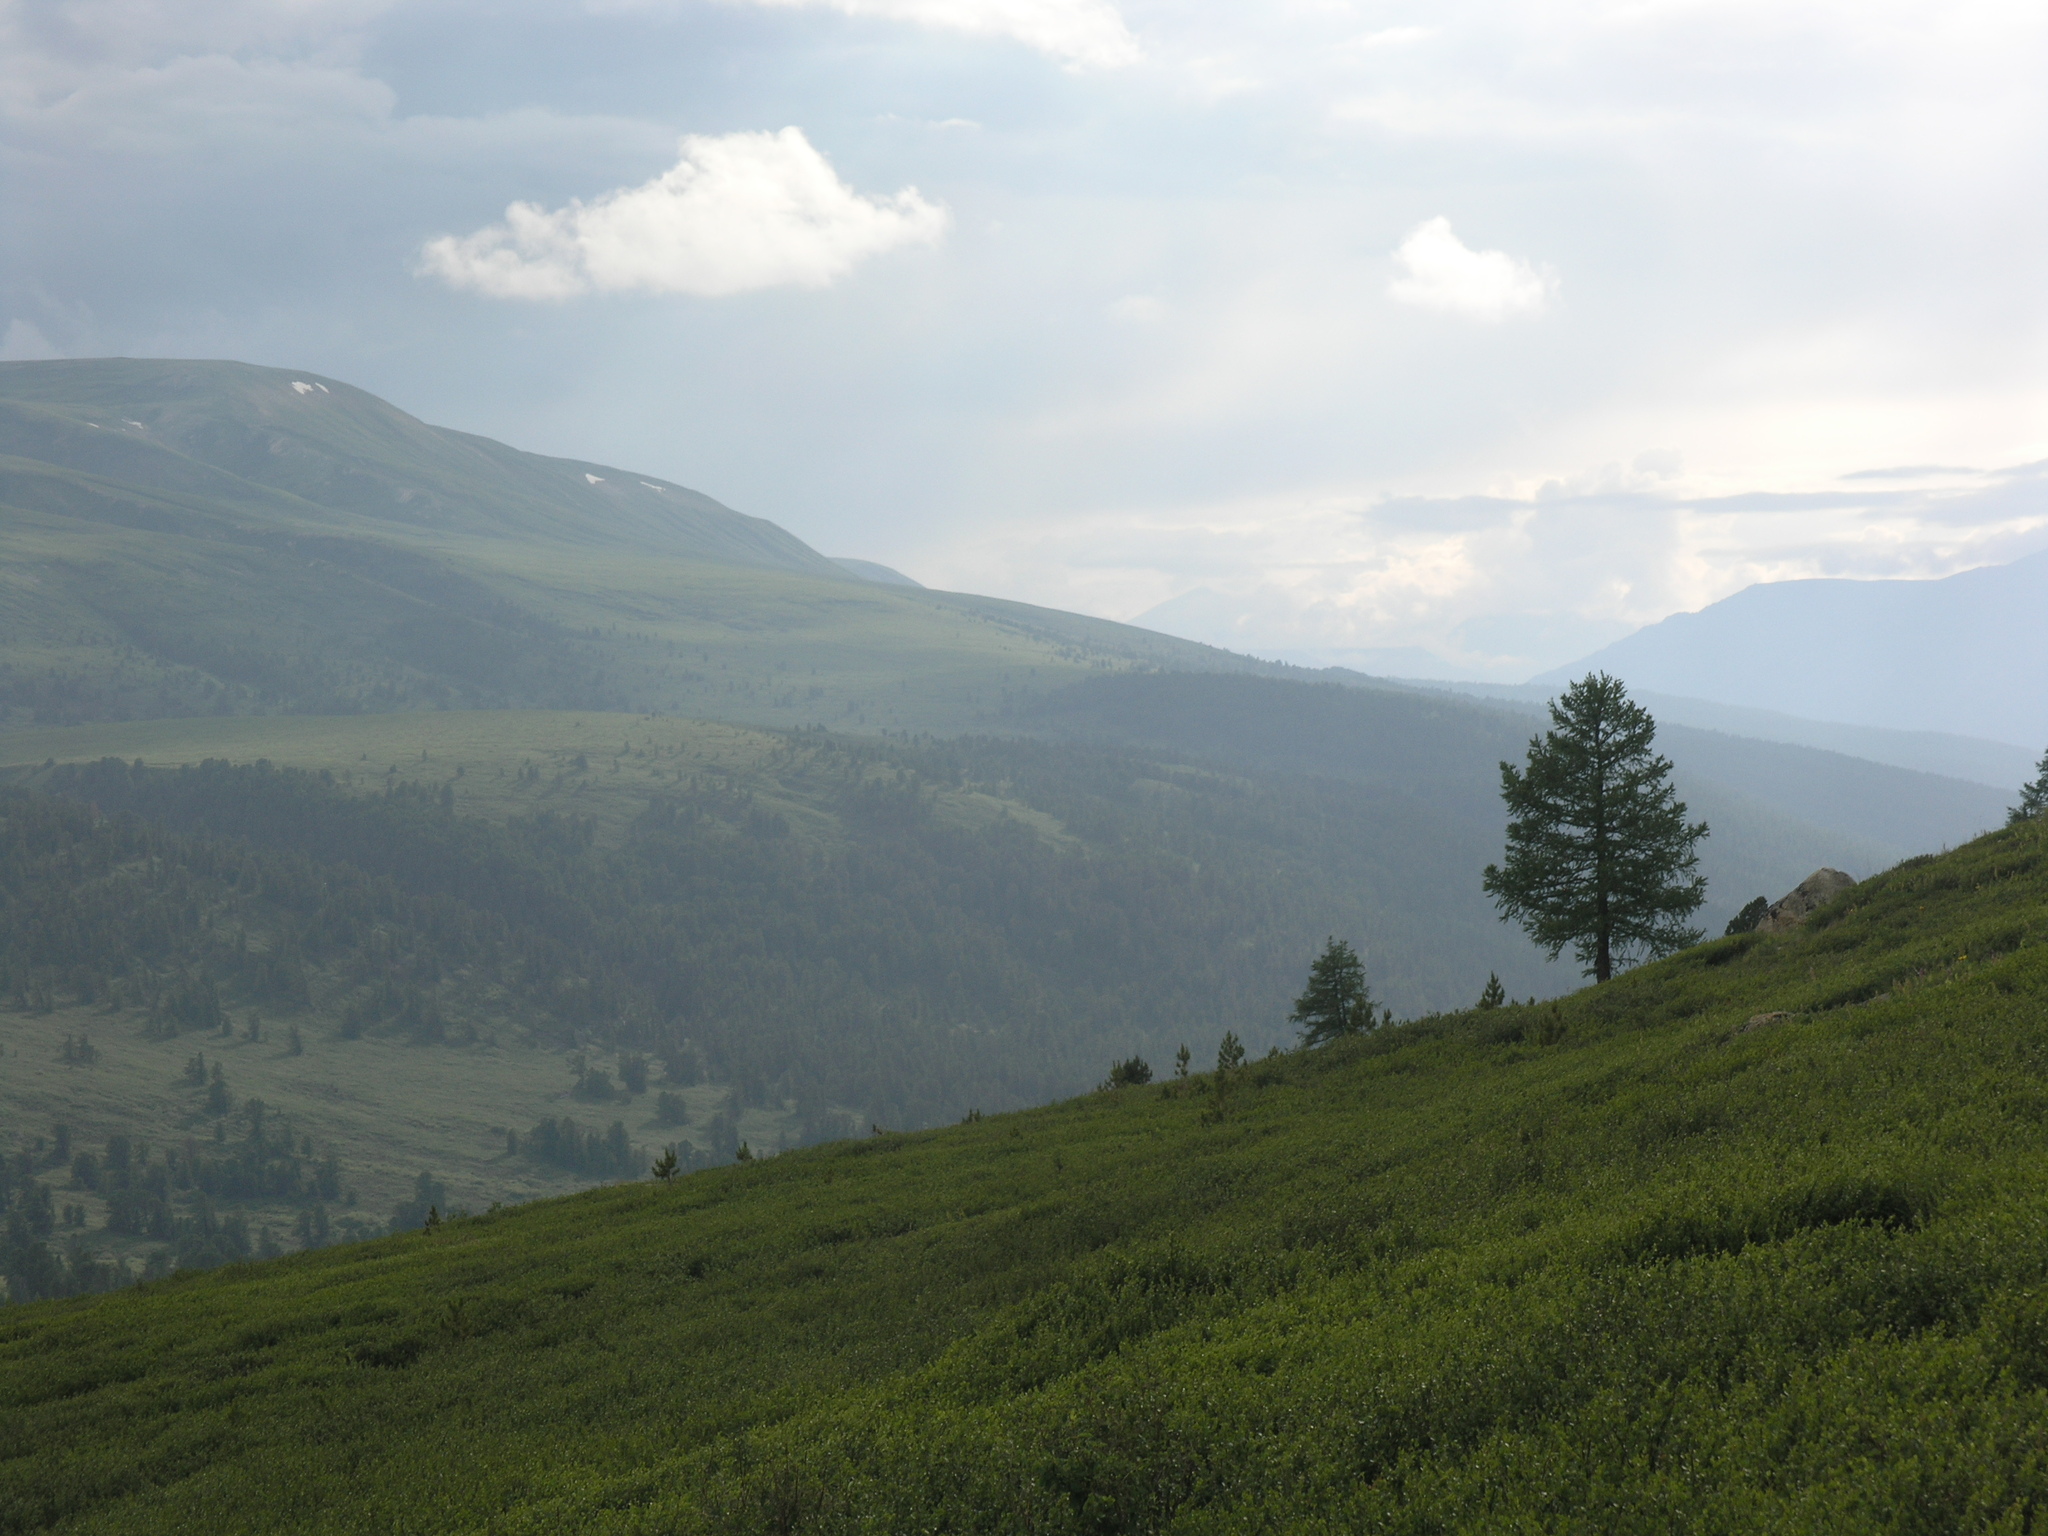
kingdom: Plantae
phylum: Tracheophyta
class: Pinopsida
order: Pinales
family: Pinaceae
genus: Larix
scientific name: Larix sibirica
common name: Siberian larch
